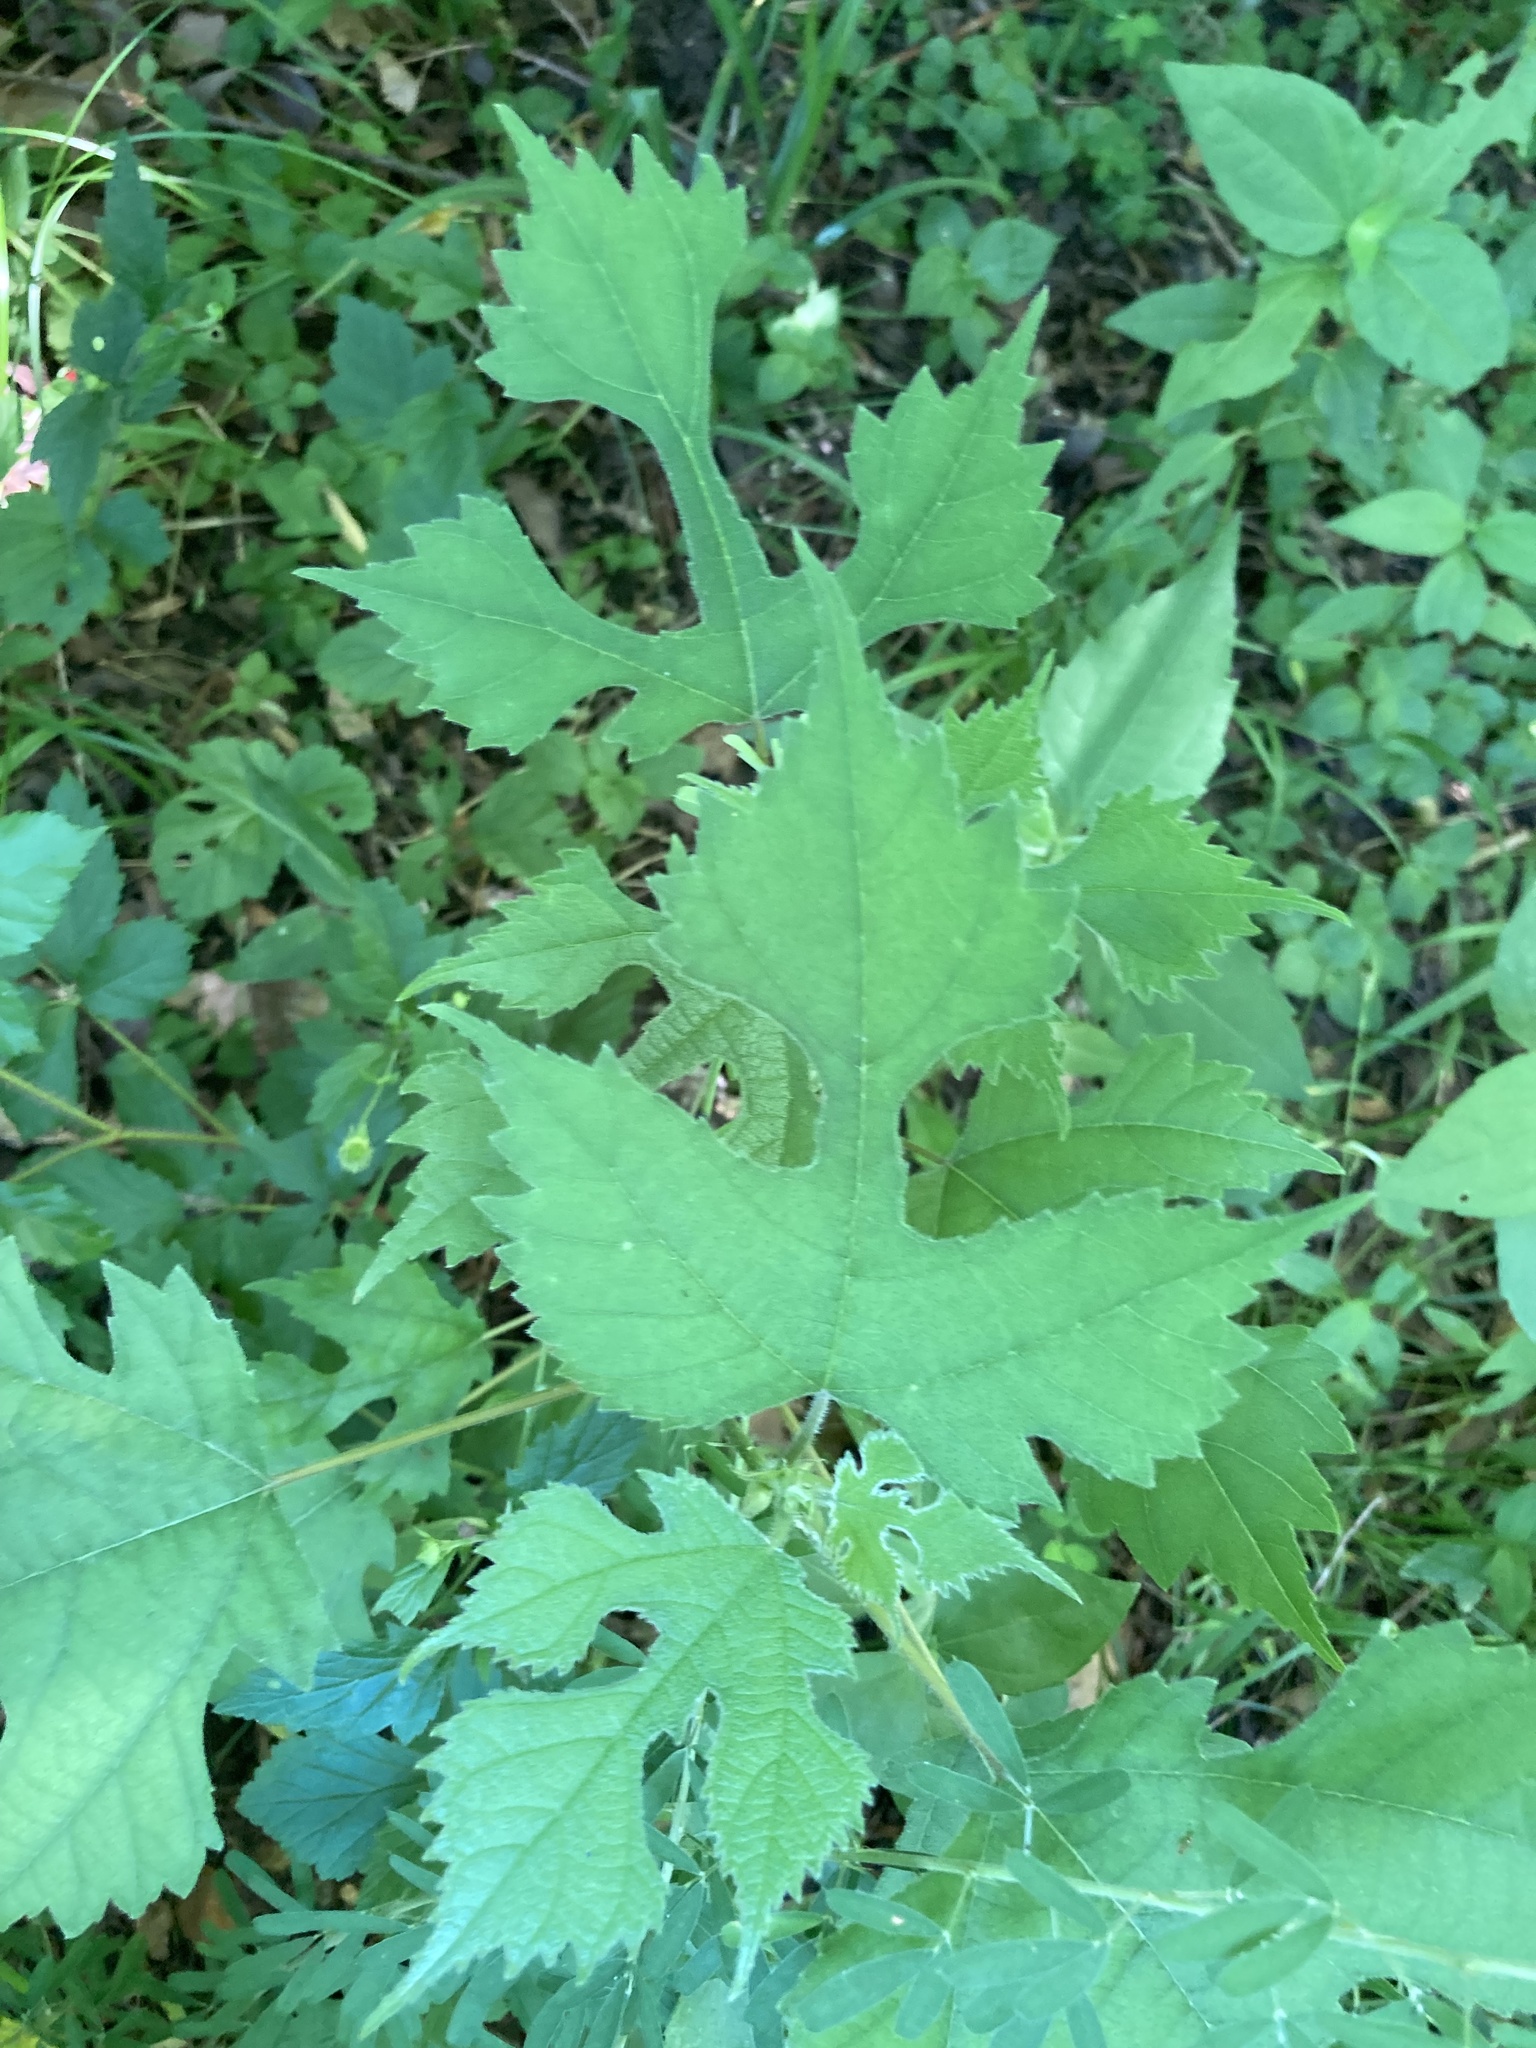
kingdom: Plantae
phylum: Tracheophyta
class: Magnoliopsida
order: Rosales
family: Moraceae
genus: Broussonetia
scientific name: Broussonetia papyrifera
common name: Paper mulberry
